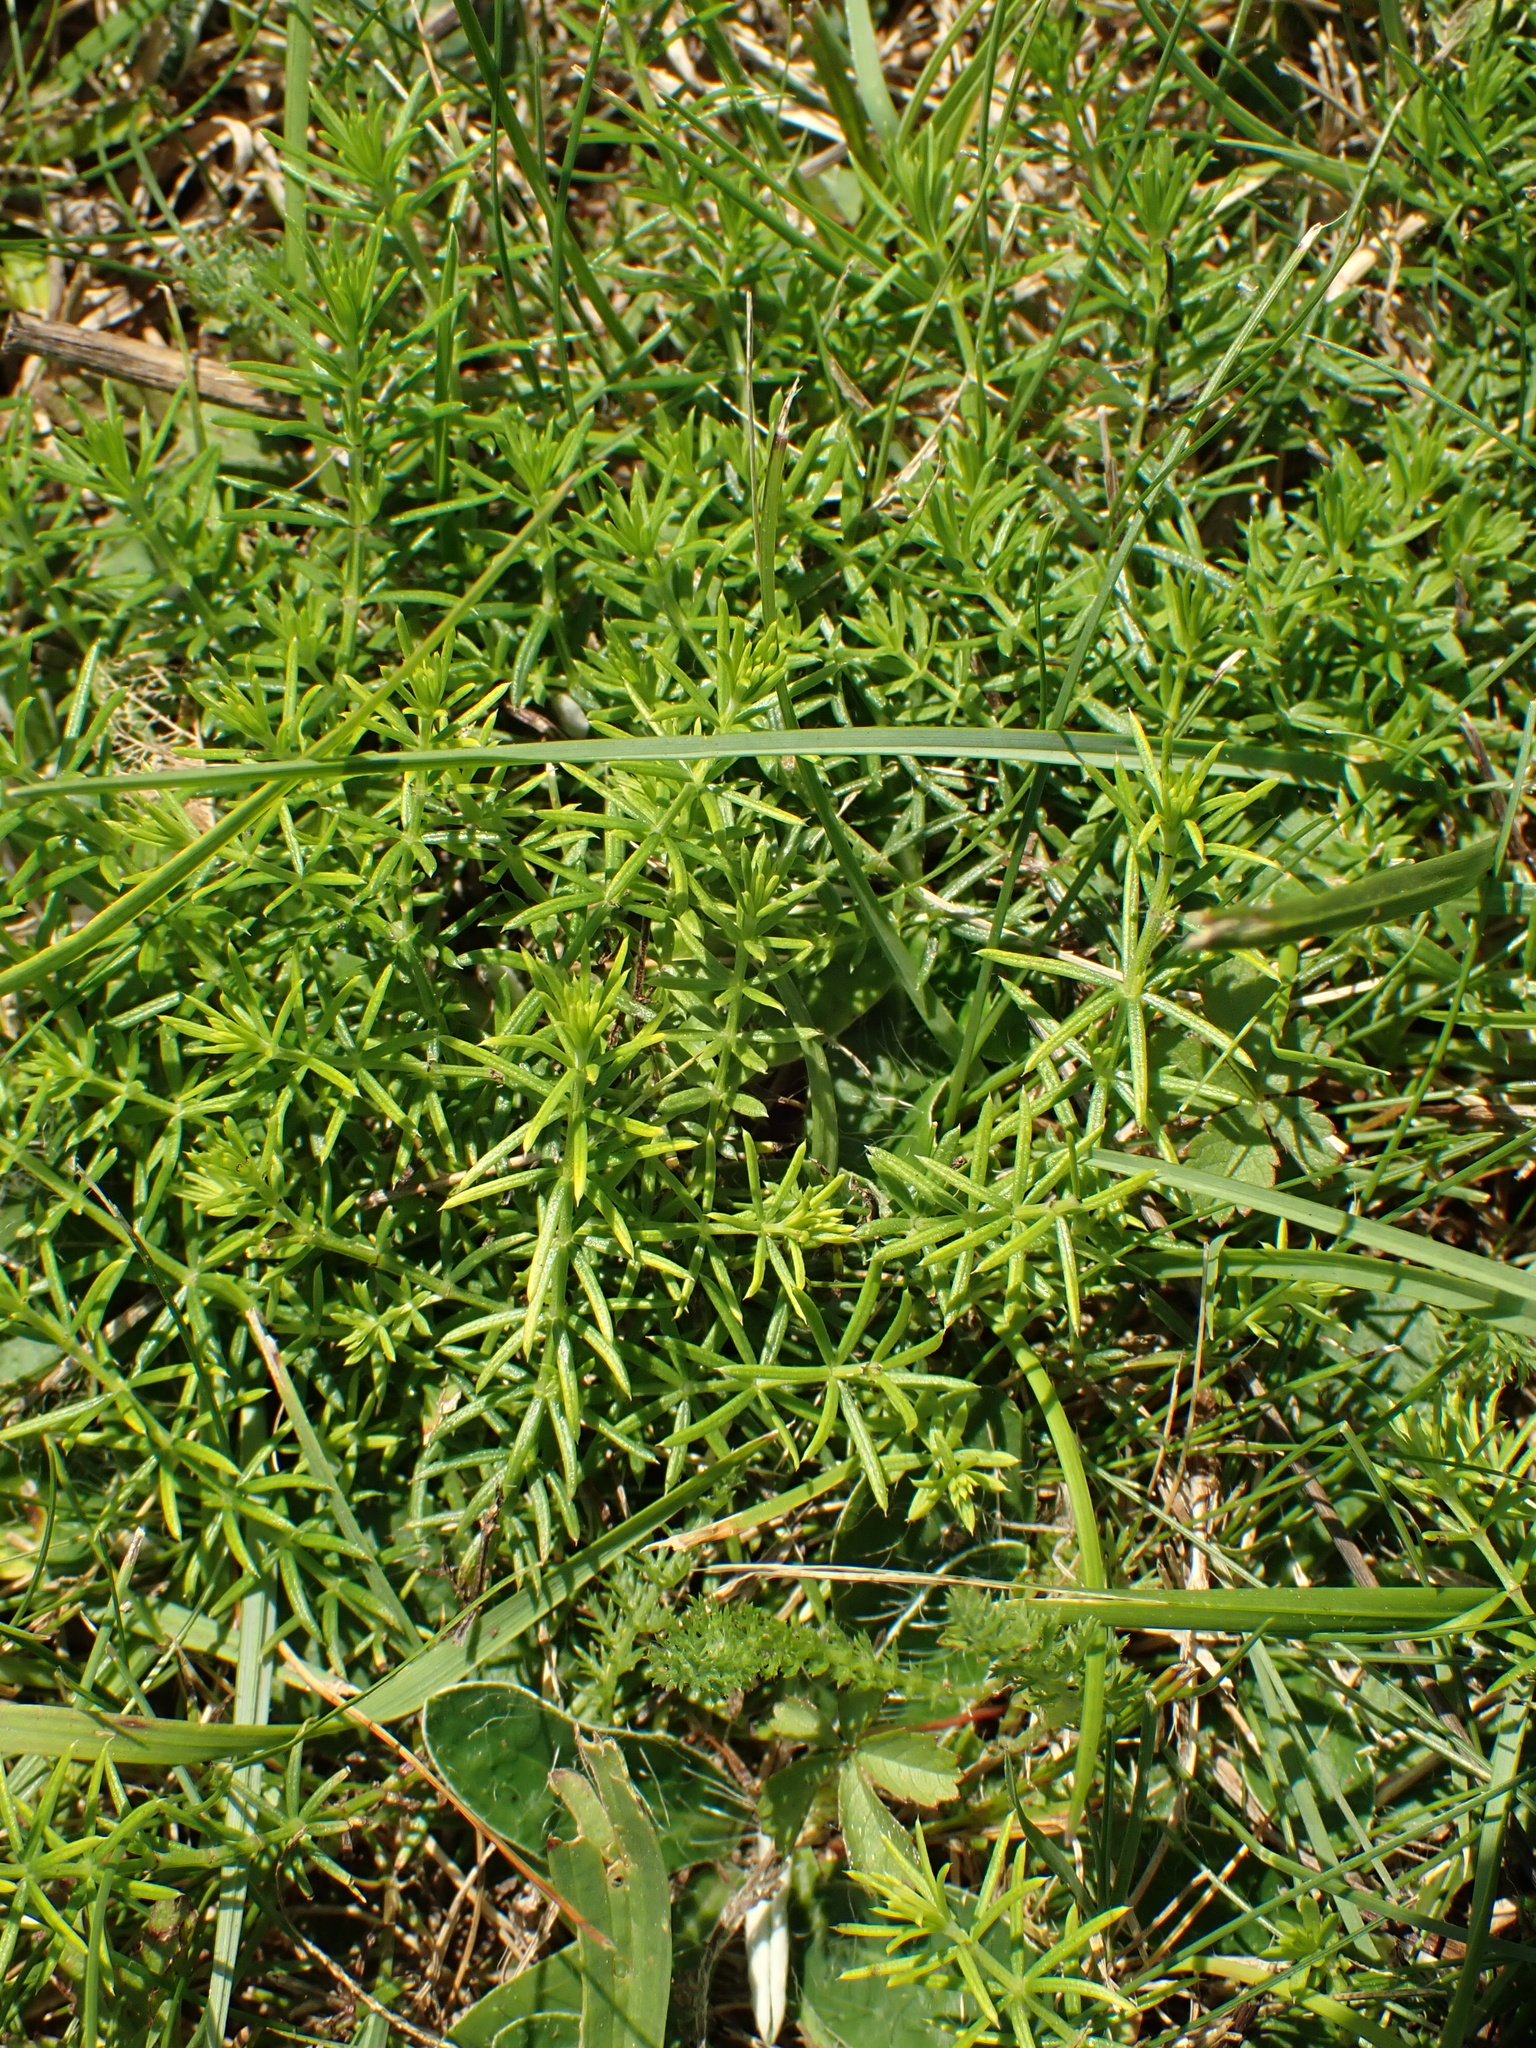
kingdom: Plantae
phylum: Tracheophyta
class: Magnoliopsida
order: Gentianales
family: Rubiaceae
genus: Galium
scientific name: Galium verum
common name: Lady's bedstraw
